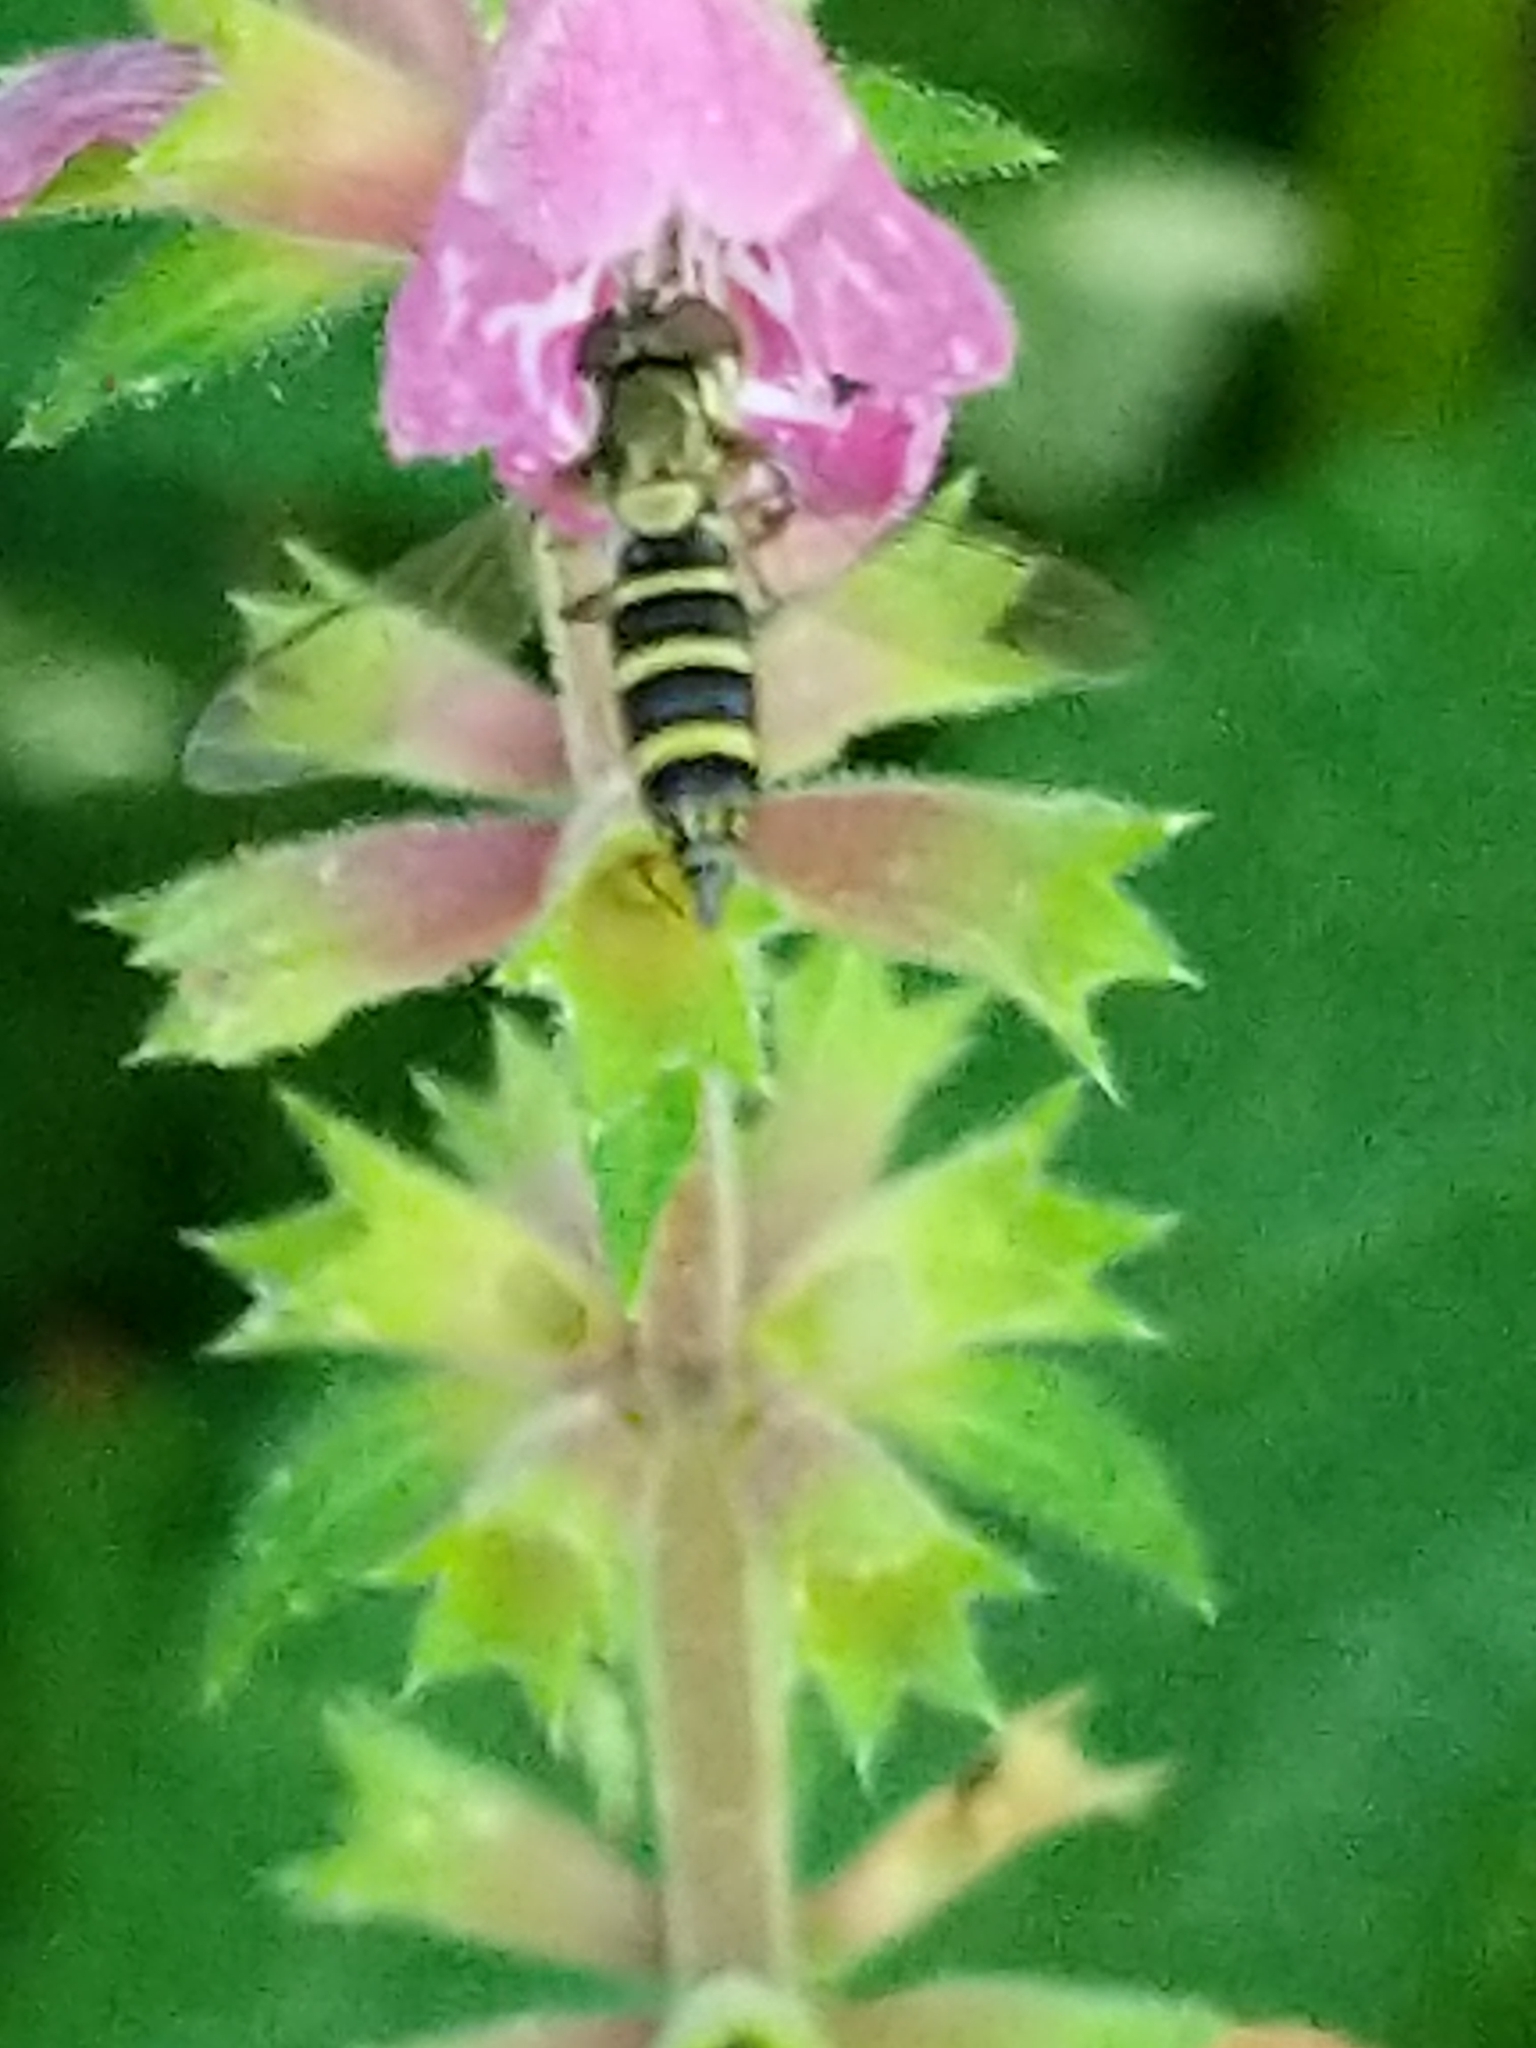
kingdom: Animalia
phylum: Arthropoda
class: Insecta
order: Diptera
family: Syrphidae
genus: Fazia
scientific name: Fazia micrura
